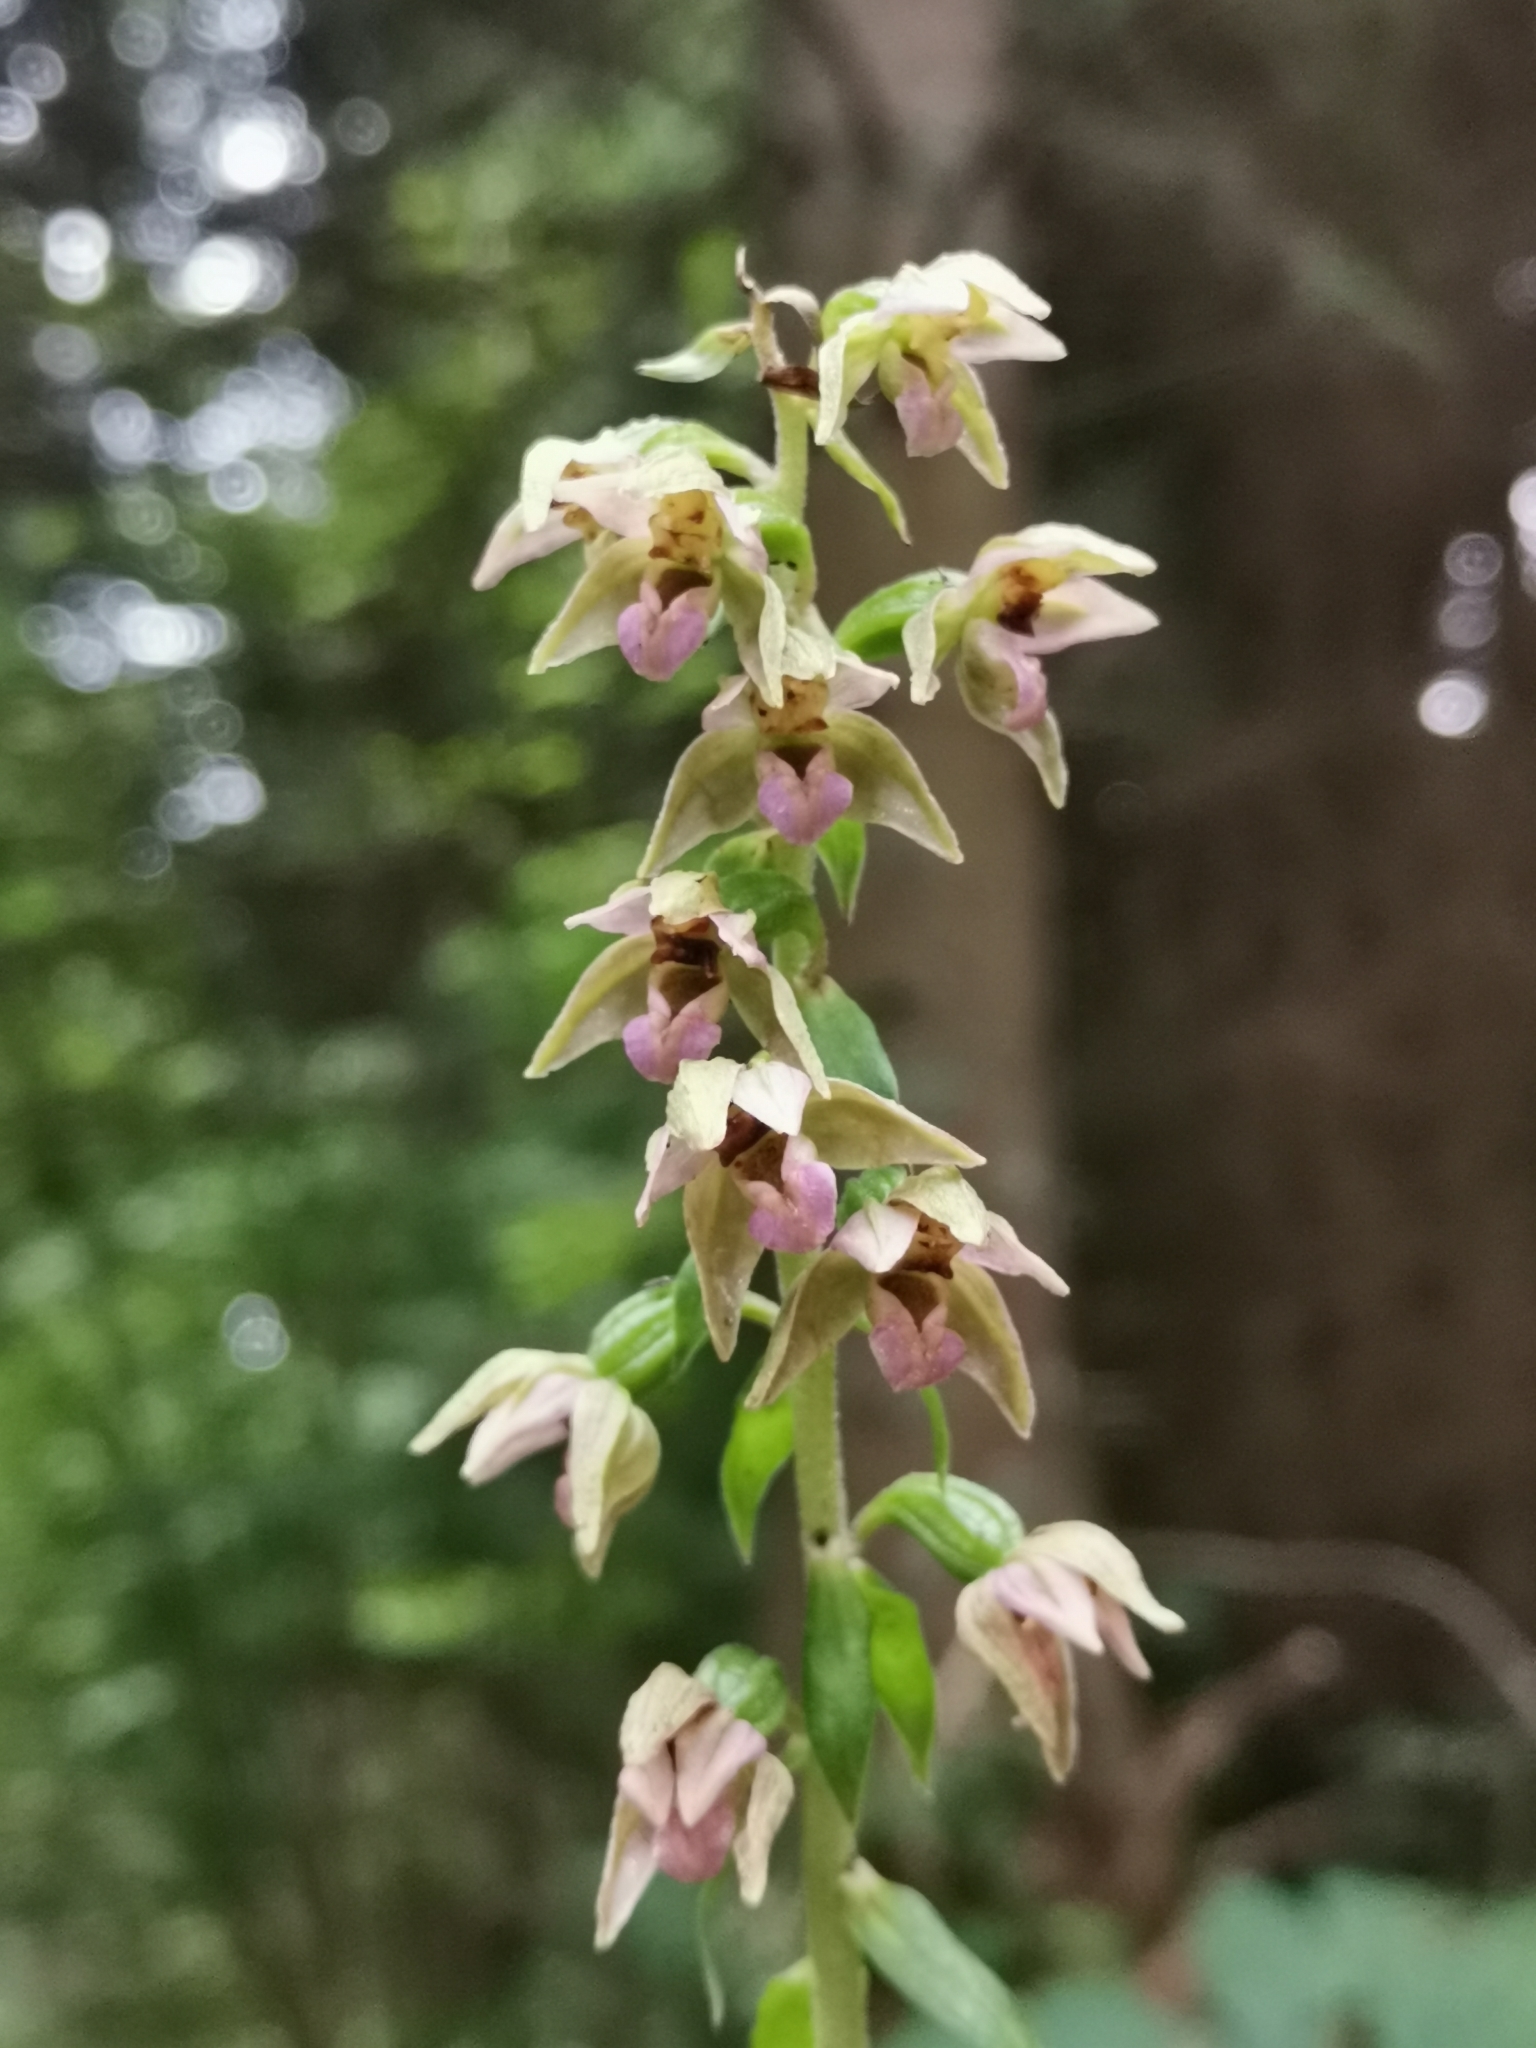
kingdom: Plantae
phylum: Tracheophyta
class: Liliopsida
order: Asparagales
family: Orchidaceae
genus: Epipactis
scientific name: Epipactis helleborine
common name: Broad-leaved helleborine
